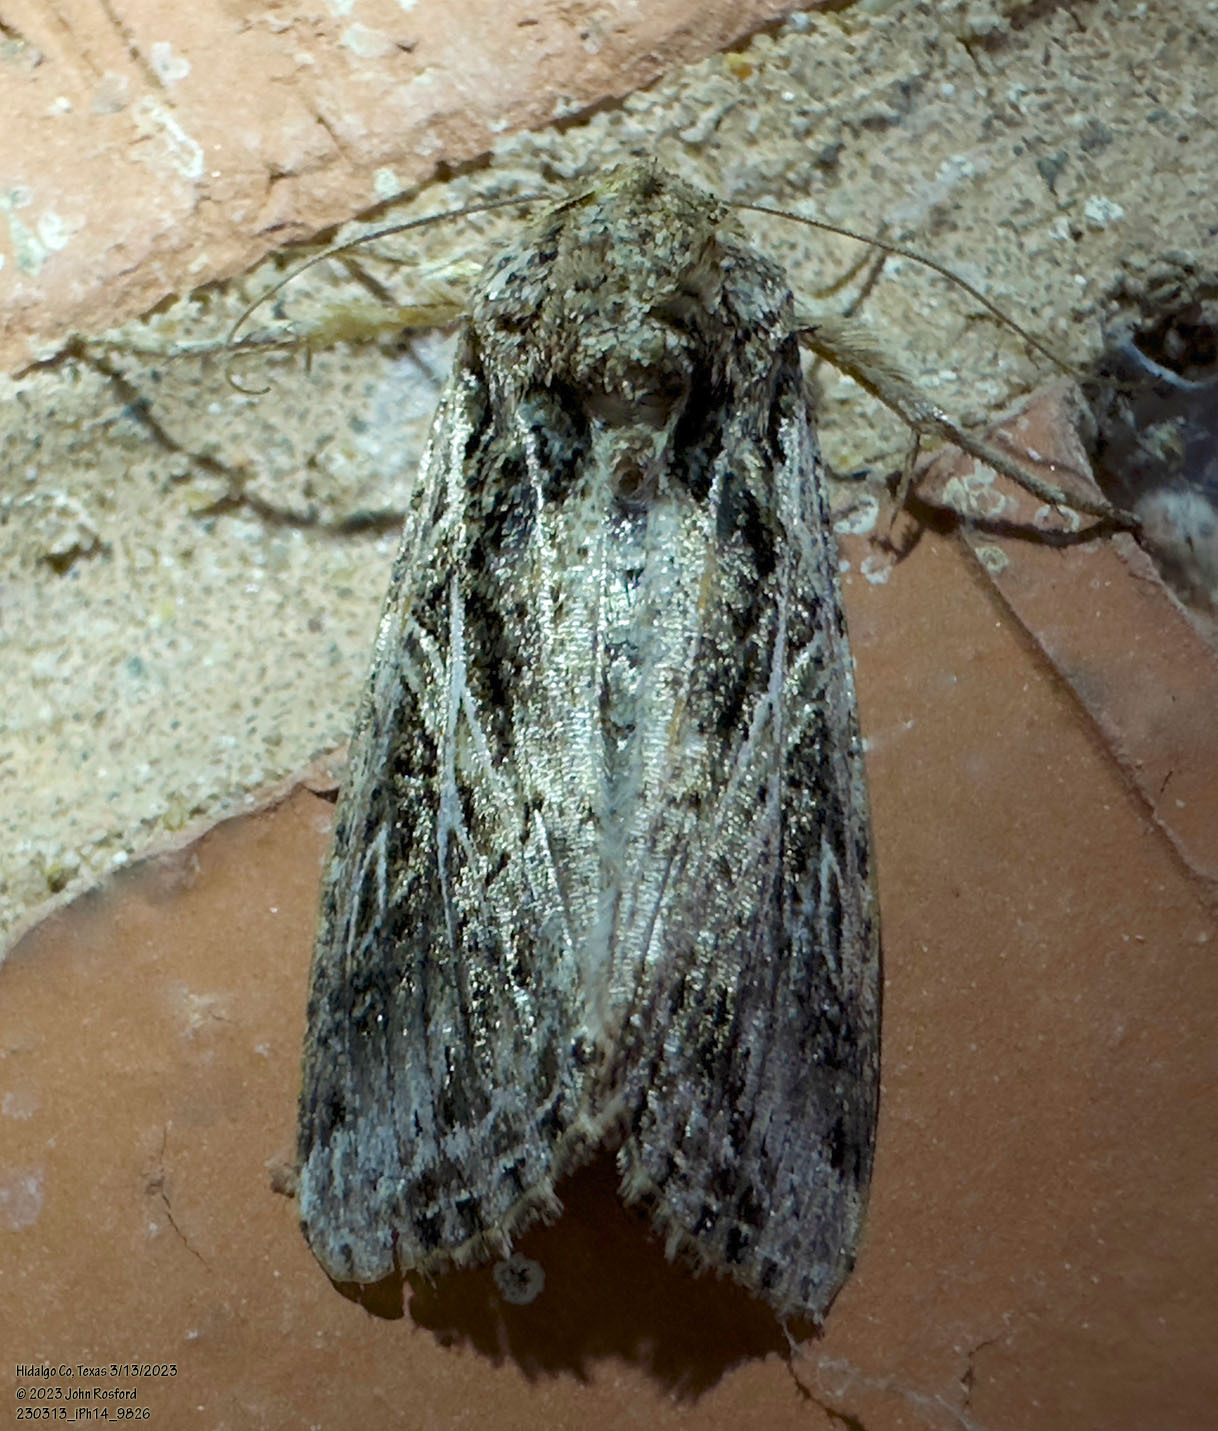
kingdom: Animalia
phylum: Arthropoda
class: Insecta
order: Lepidoptera
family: Noctuidae
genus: Spodoptera
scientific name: Spodoptera ornithogalli
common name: Yellow-striped armyworm
